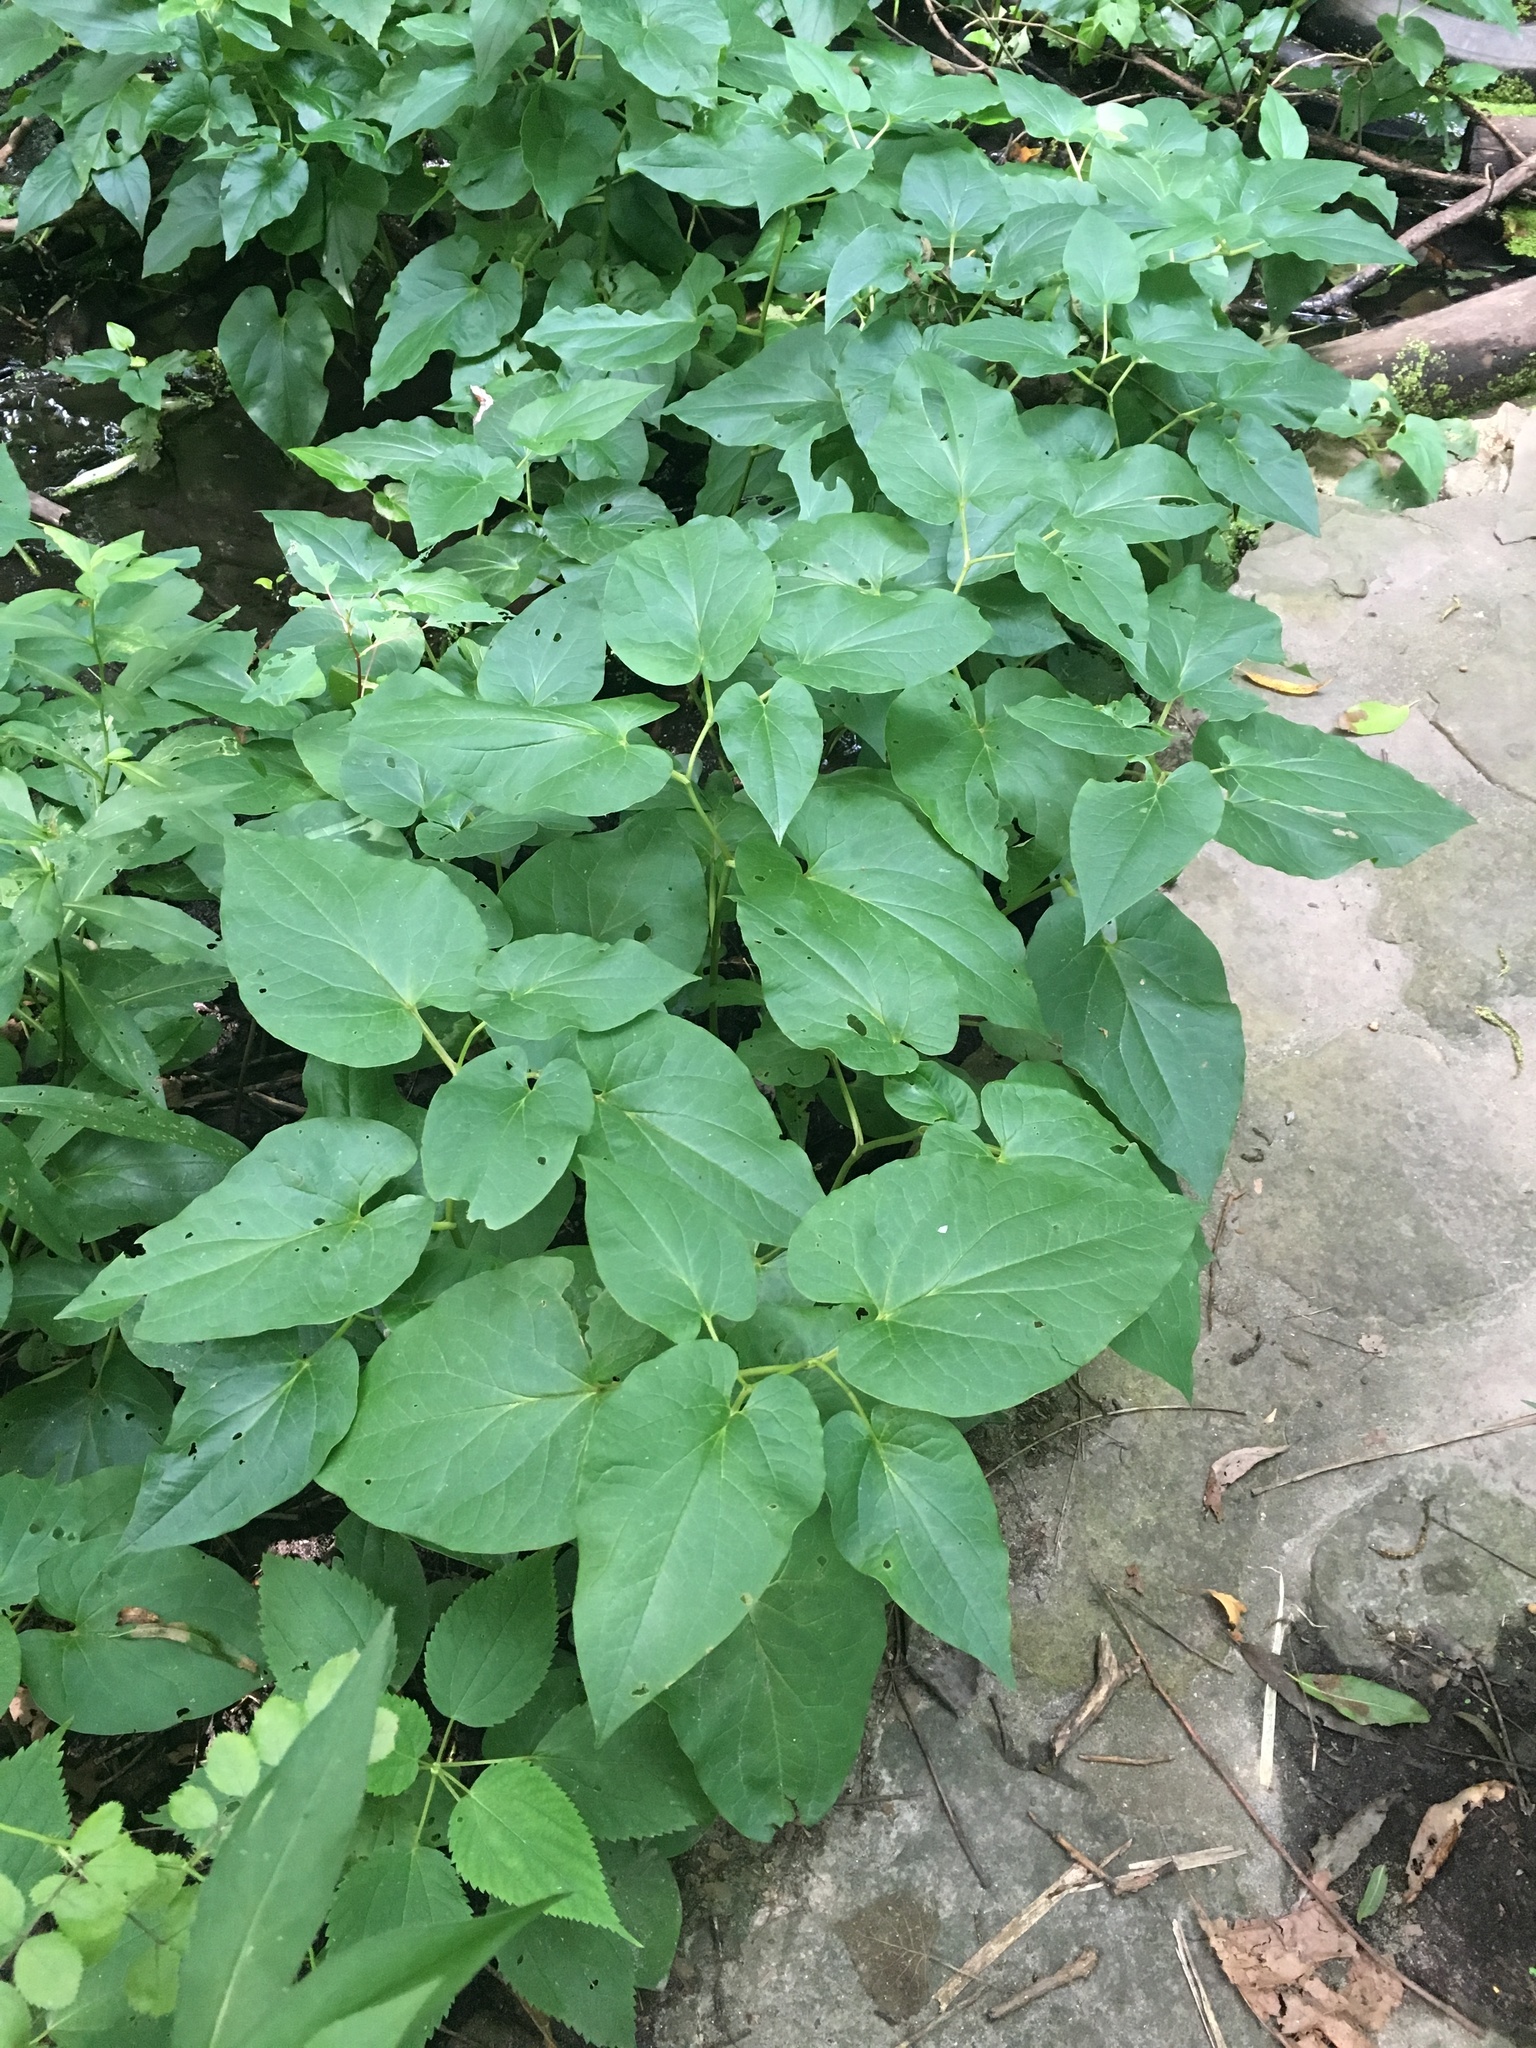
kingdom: Plantae
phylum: Tracheophyta
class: Magnoliopsida
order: Piperales
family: Saururaceae
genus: Saururus
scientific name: Saururus cernuus
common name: Lizard's-tail
